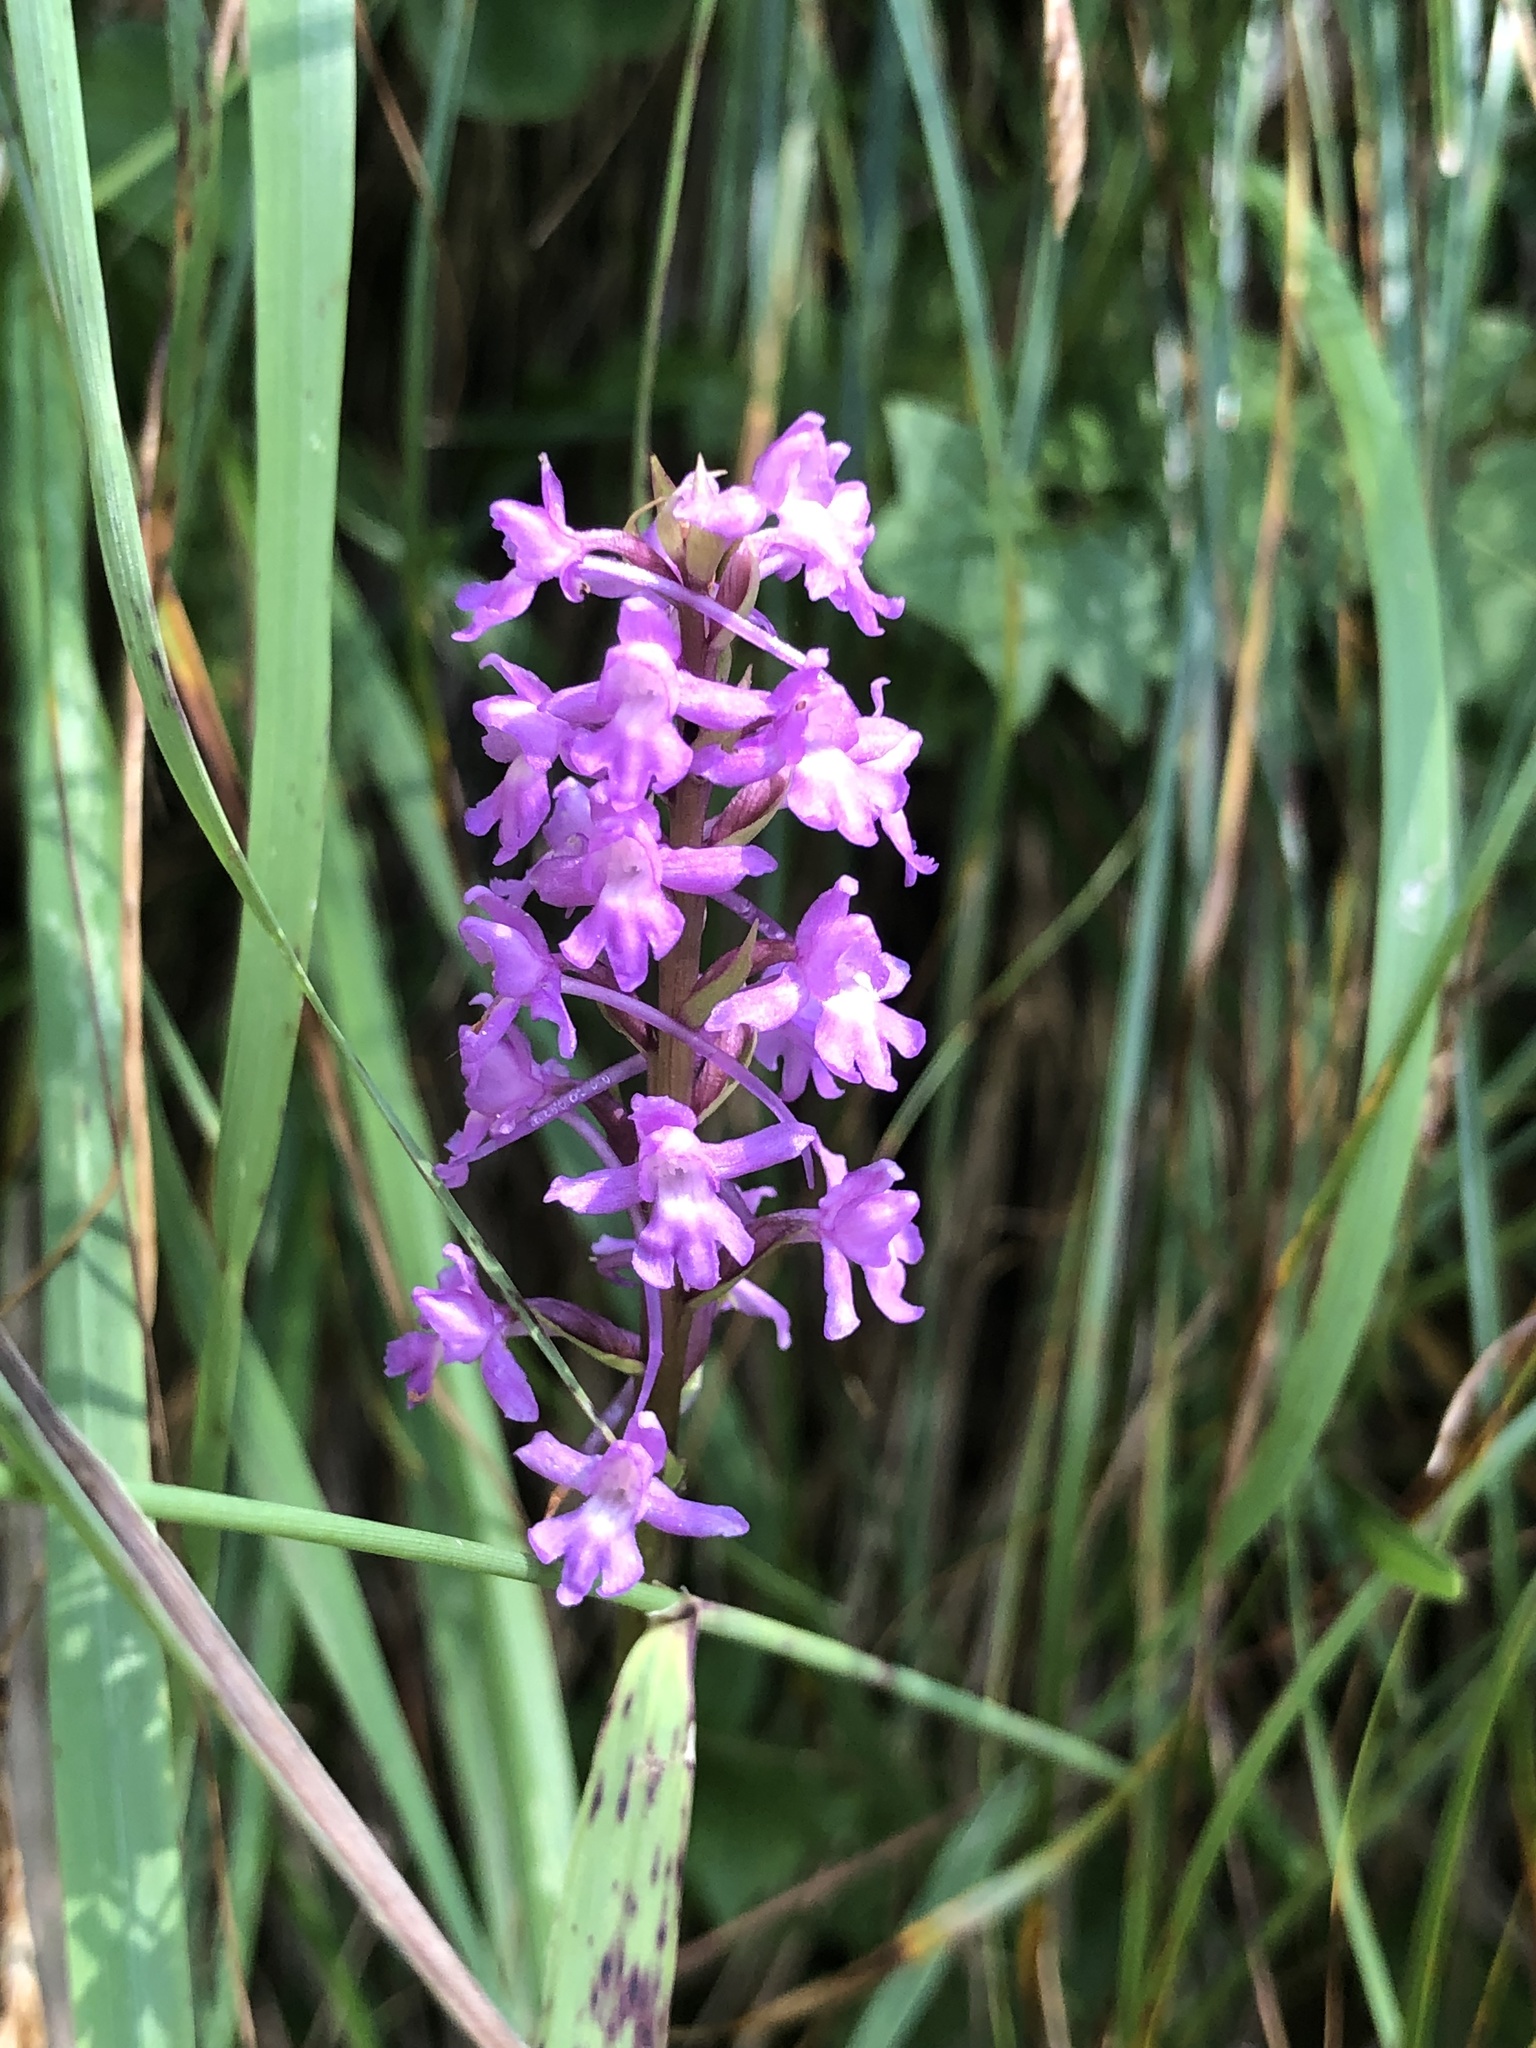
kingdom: Plantae
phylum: Tracheophyta
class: Liliopsida
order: Asparagales
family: Orchidaceae
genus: Gymnadenia
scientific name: Gymnadenia conopsea
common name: Fragrant orchid
